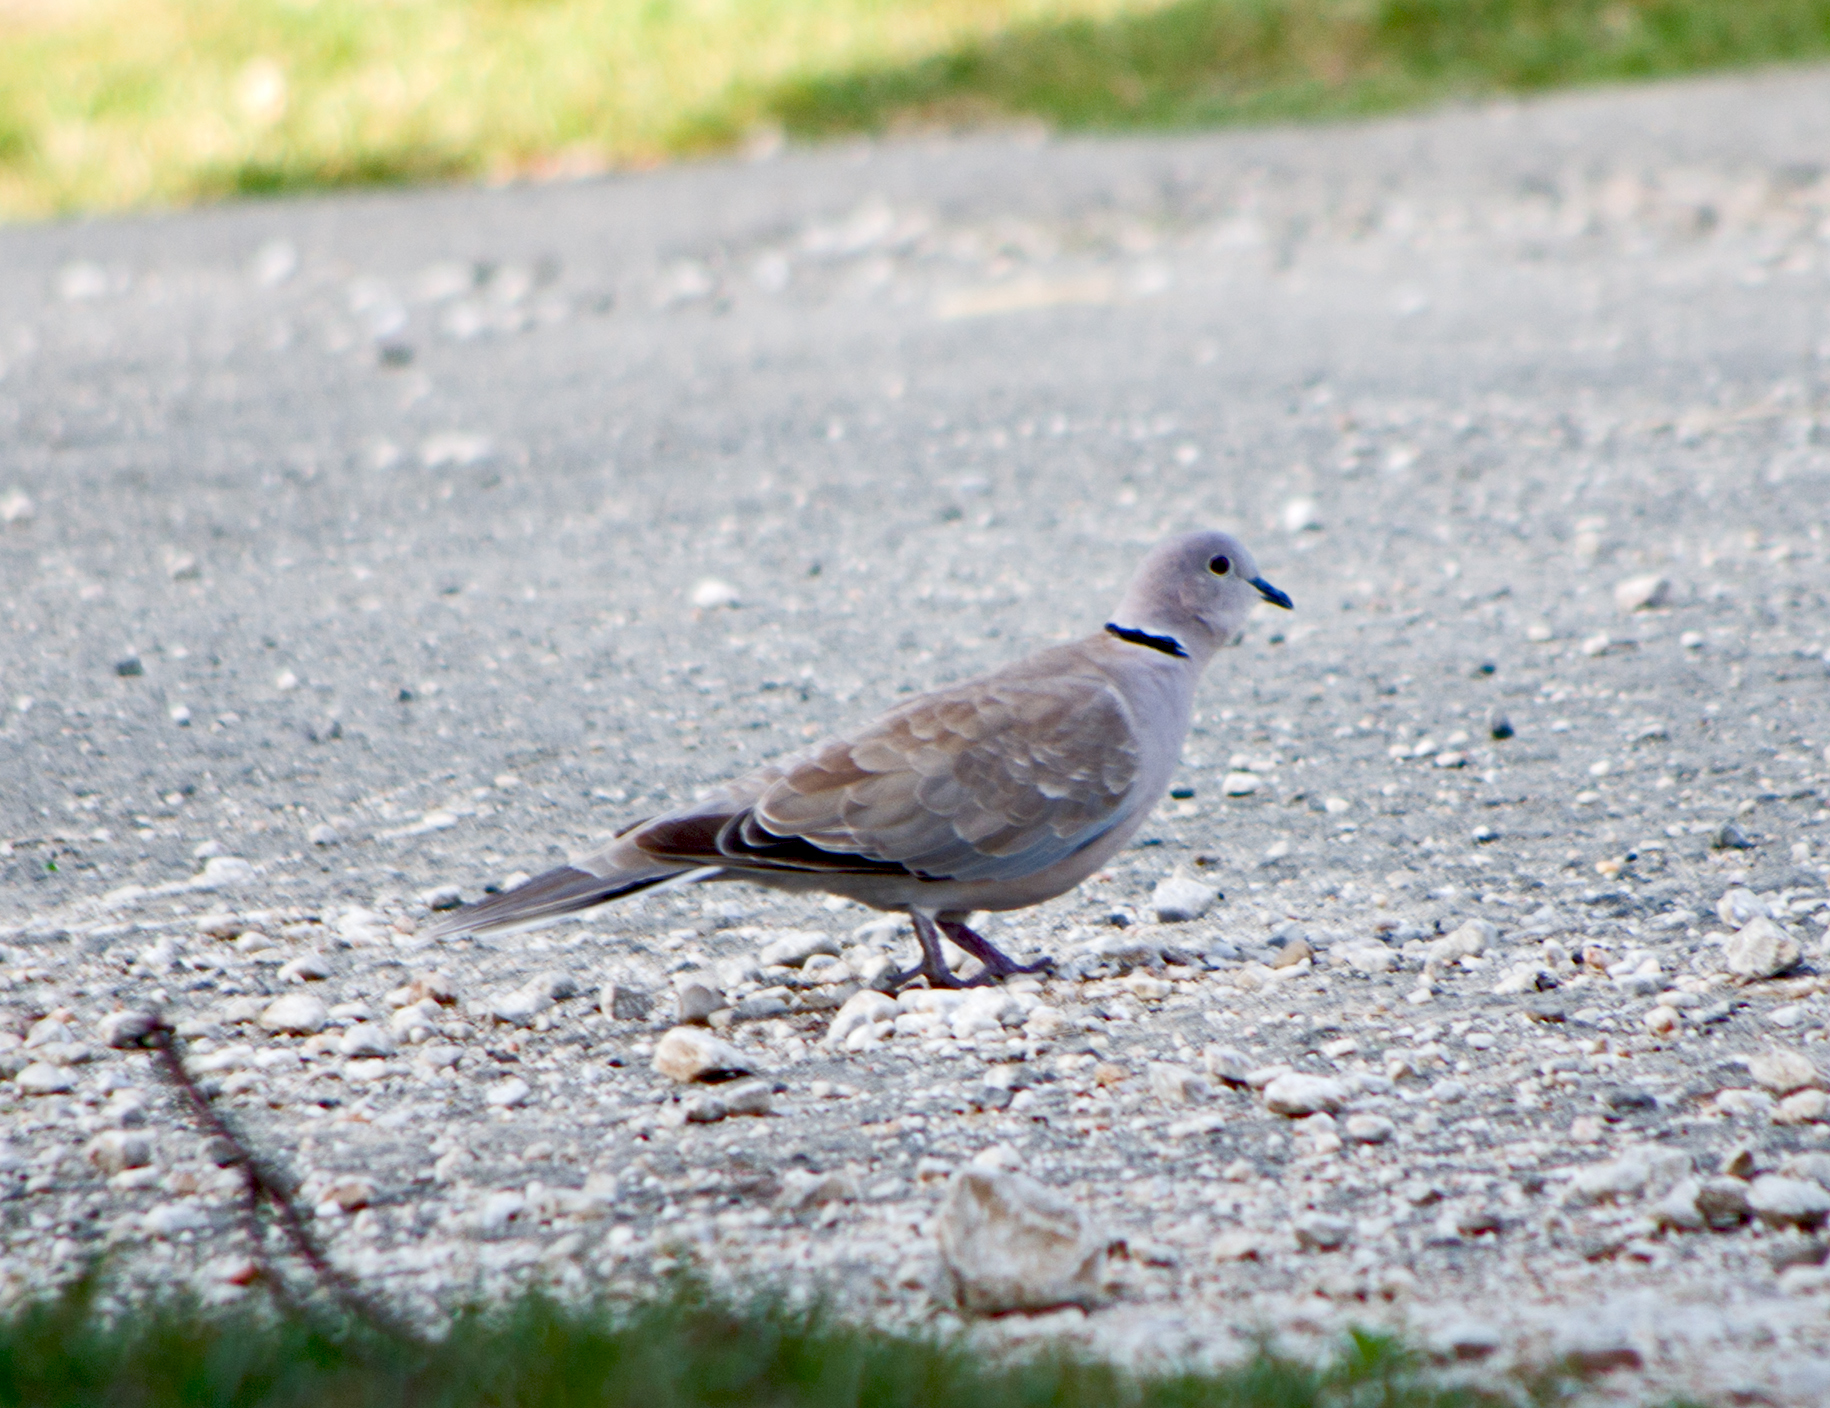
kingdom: Animalia
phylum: Chordata
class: Aves
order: Columbiformes
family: Columbidae
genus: Streptopelia
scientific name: Streptopelia decaocto
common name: Eurasian collared dove
